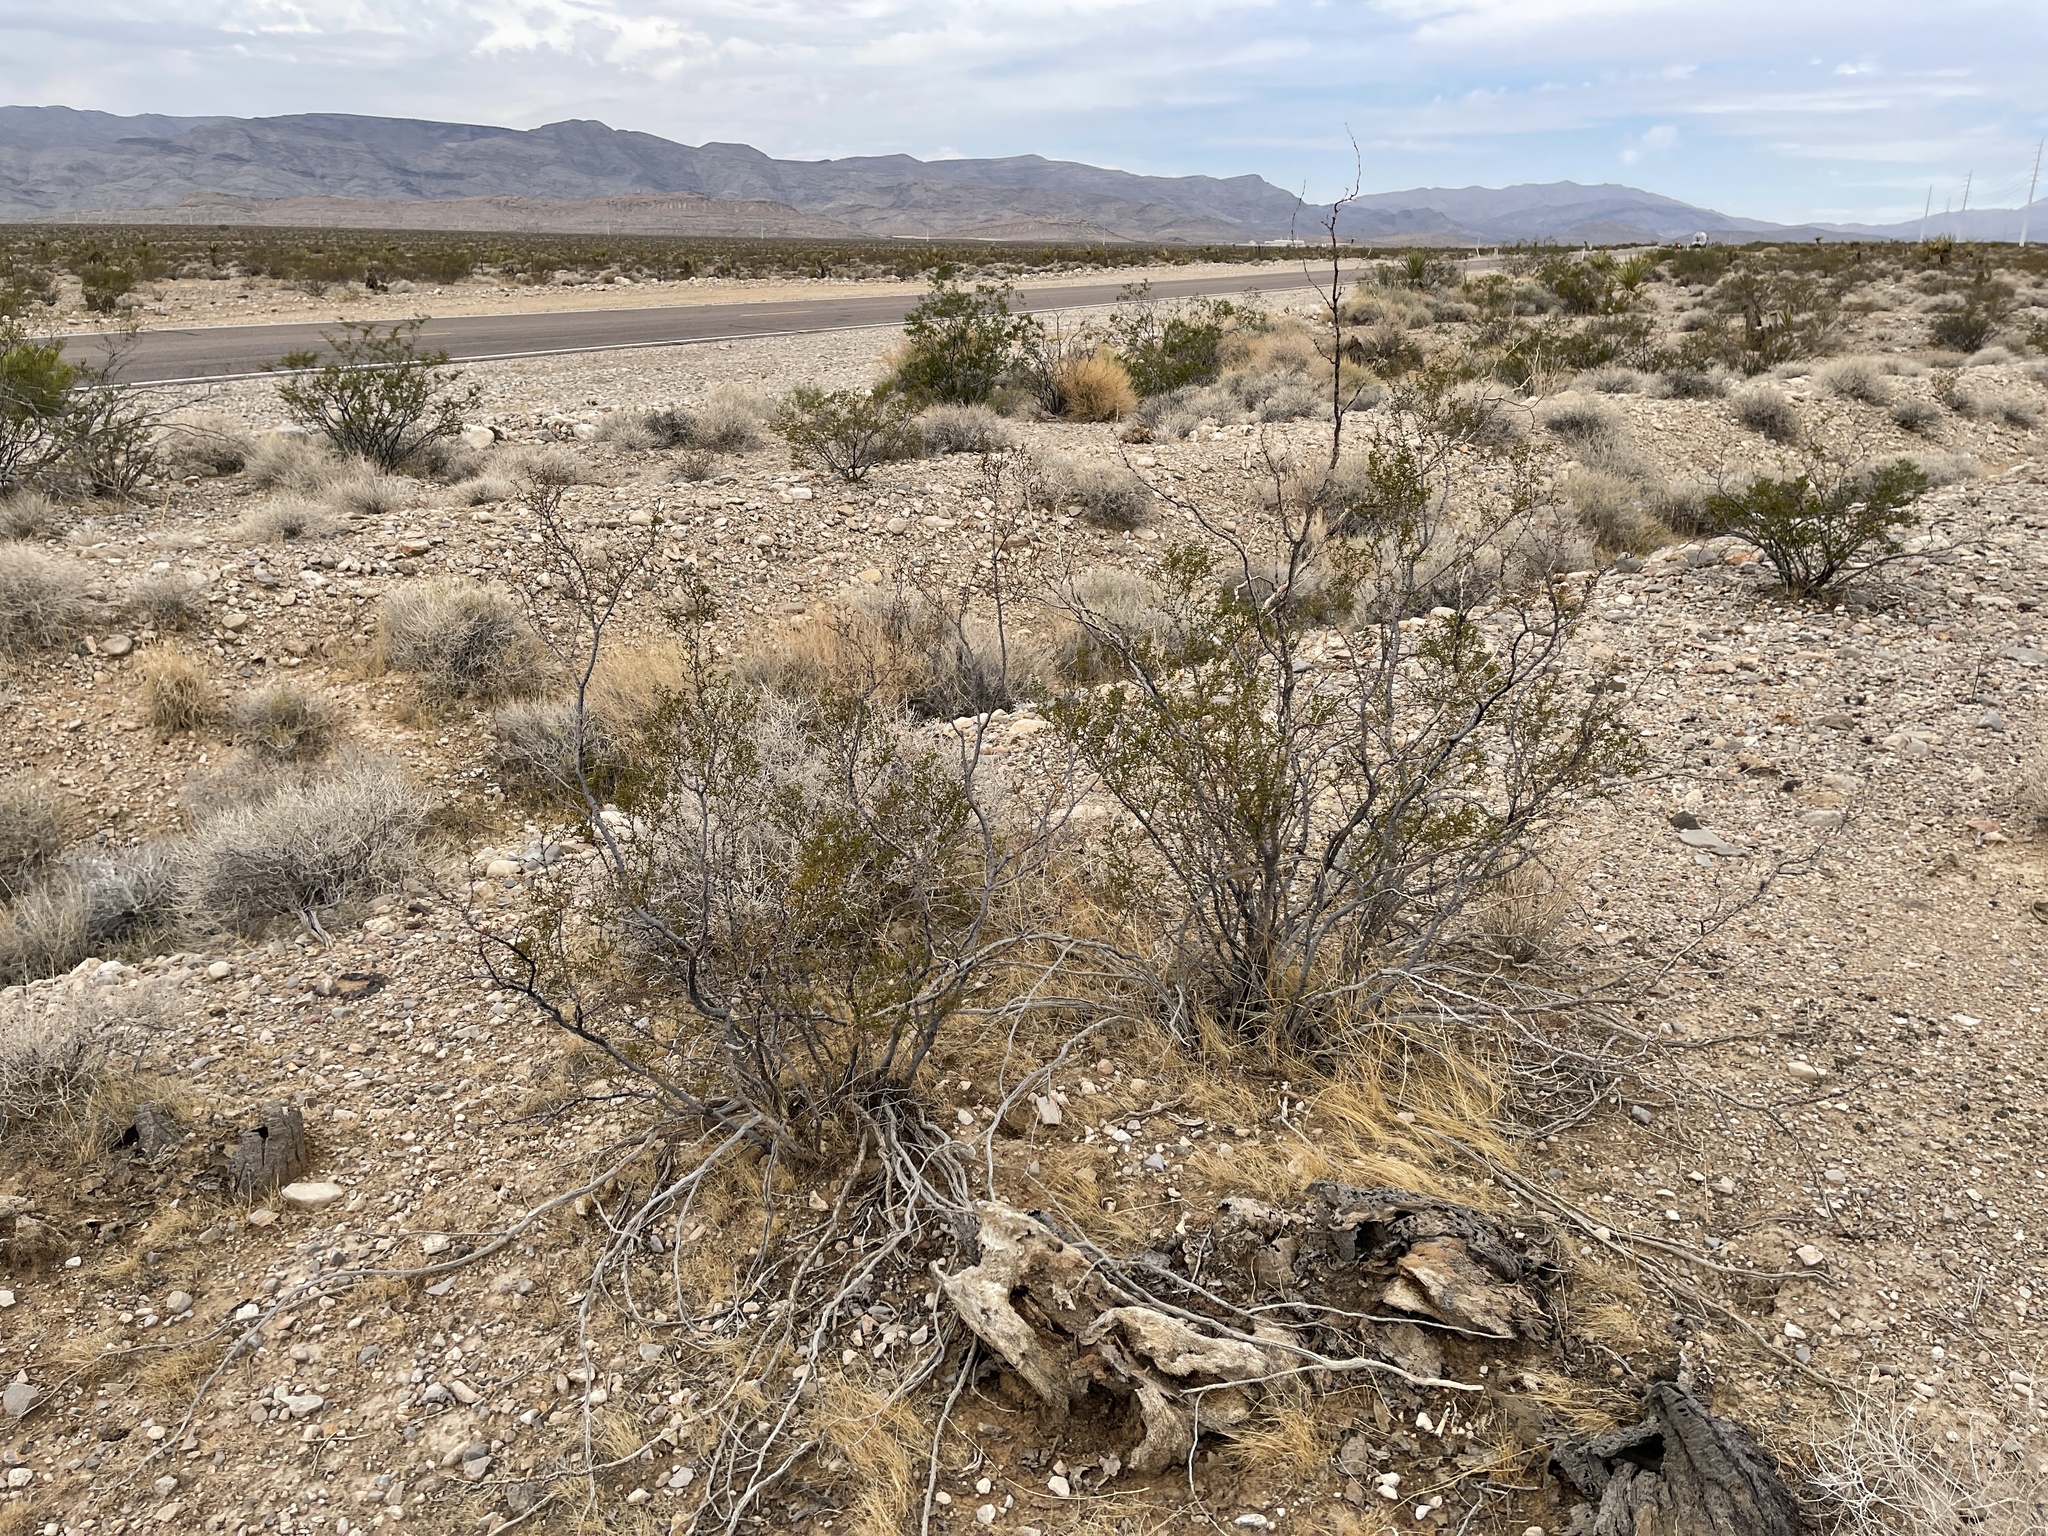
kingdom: Plantae
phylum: Tracheophyta
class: Magnoliopsida
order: Zygophyllales
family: Zygophyllaceae
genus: Larrea
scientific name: Larrea tridentata
